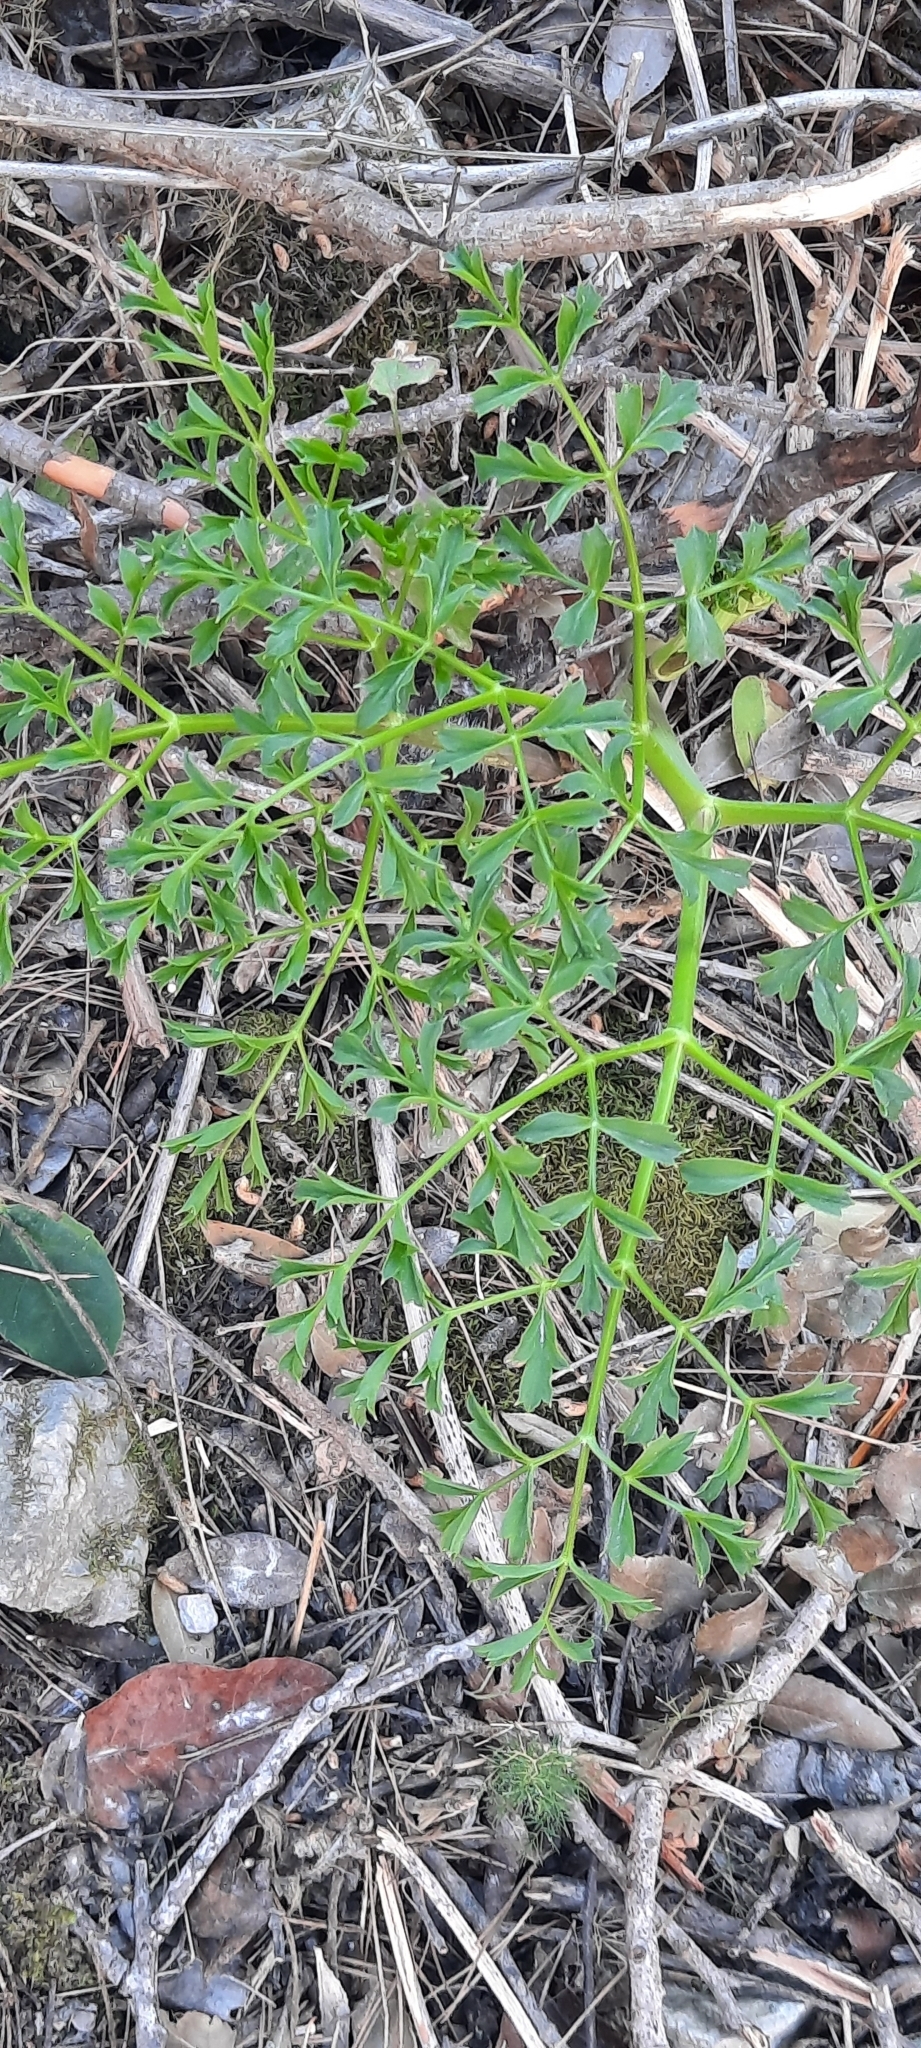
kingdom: Plantae
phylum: Tracheophyta
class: Magnoliopsida
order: Apiales
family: Apiaceae
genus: Laserpitium
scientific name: Laserpitium gallicum
